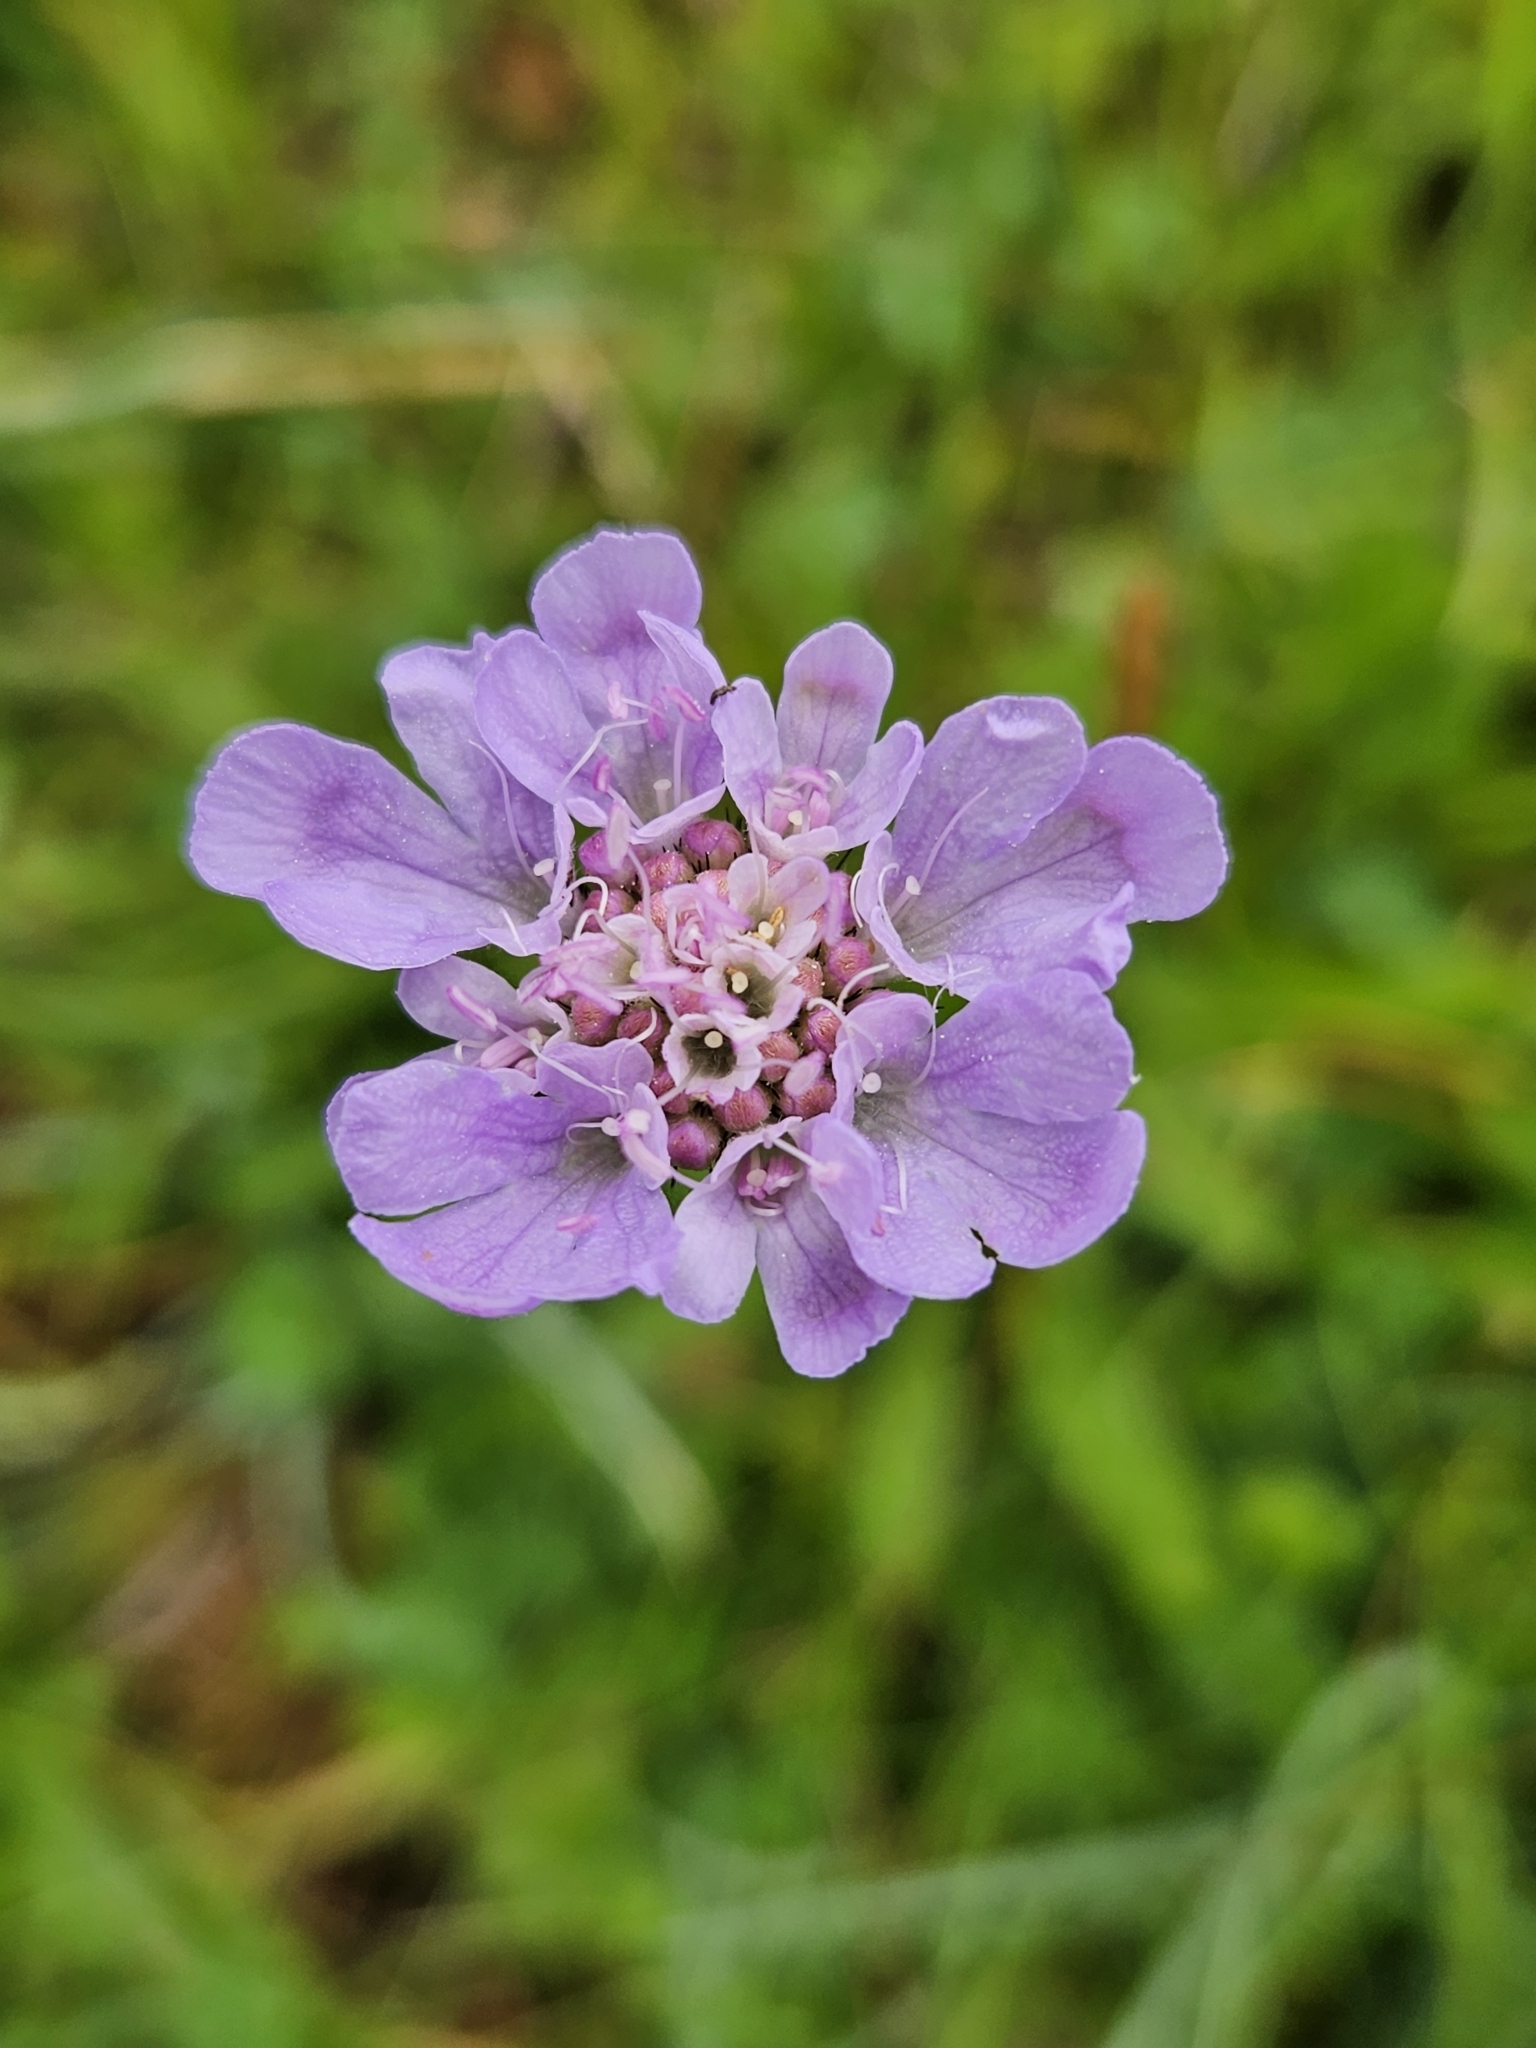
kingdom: Plantae
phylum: Tracheophyta
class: Magnoliopsida
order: Dipsacales
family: Caprifoliaceae
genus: Scabiosa
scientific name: Scabiosa columbaria
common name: Small scabious
